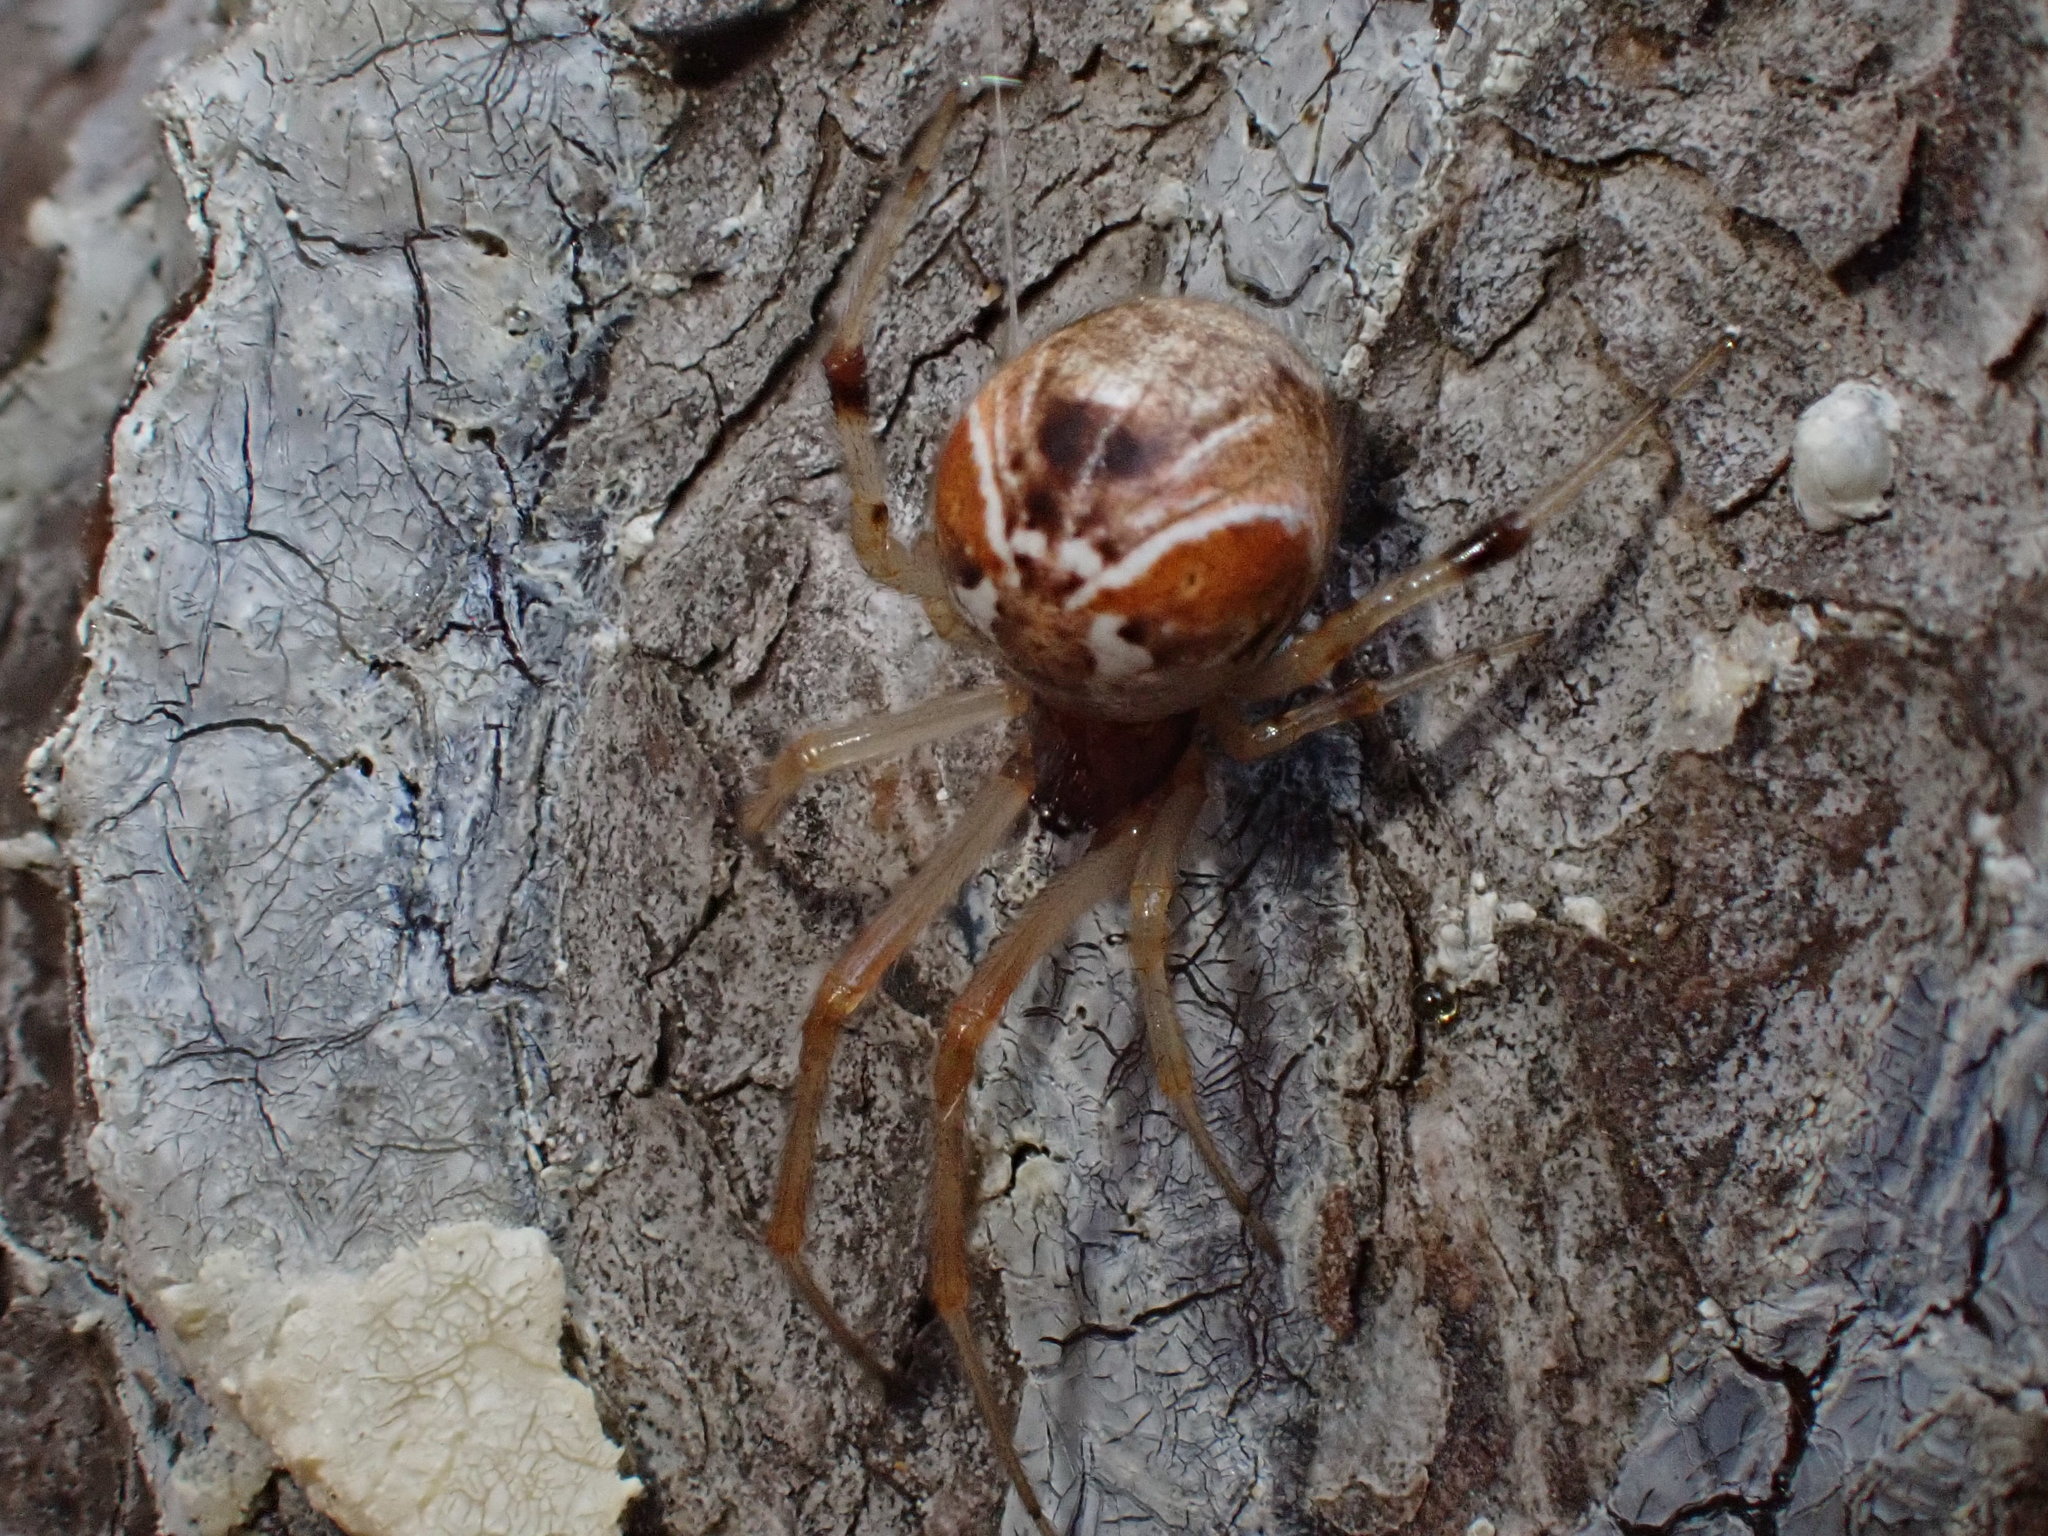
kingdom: Animalia
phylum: Arthropoda
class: Arachnida
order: Araneae
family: Theridiidae
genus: Parasteatoda
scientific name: Parasteatoda lunata
